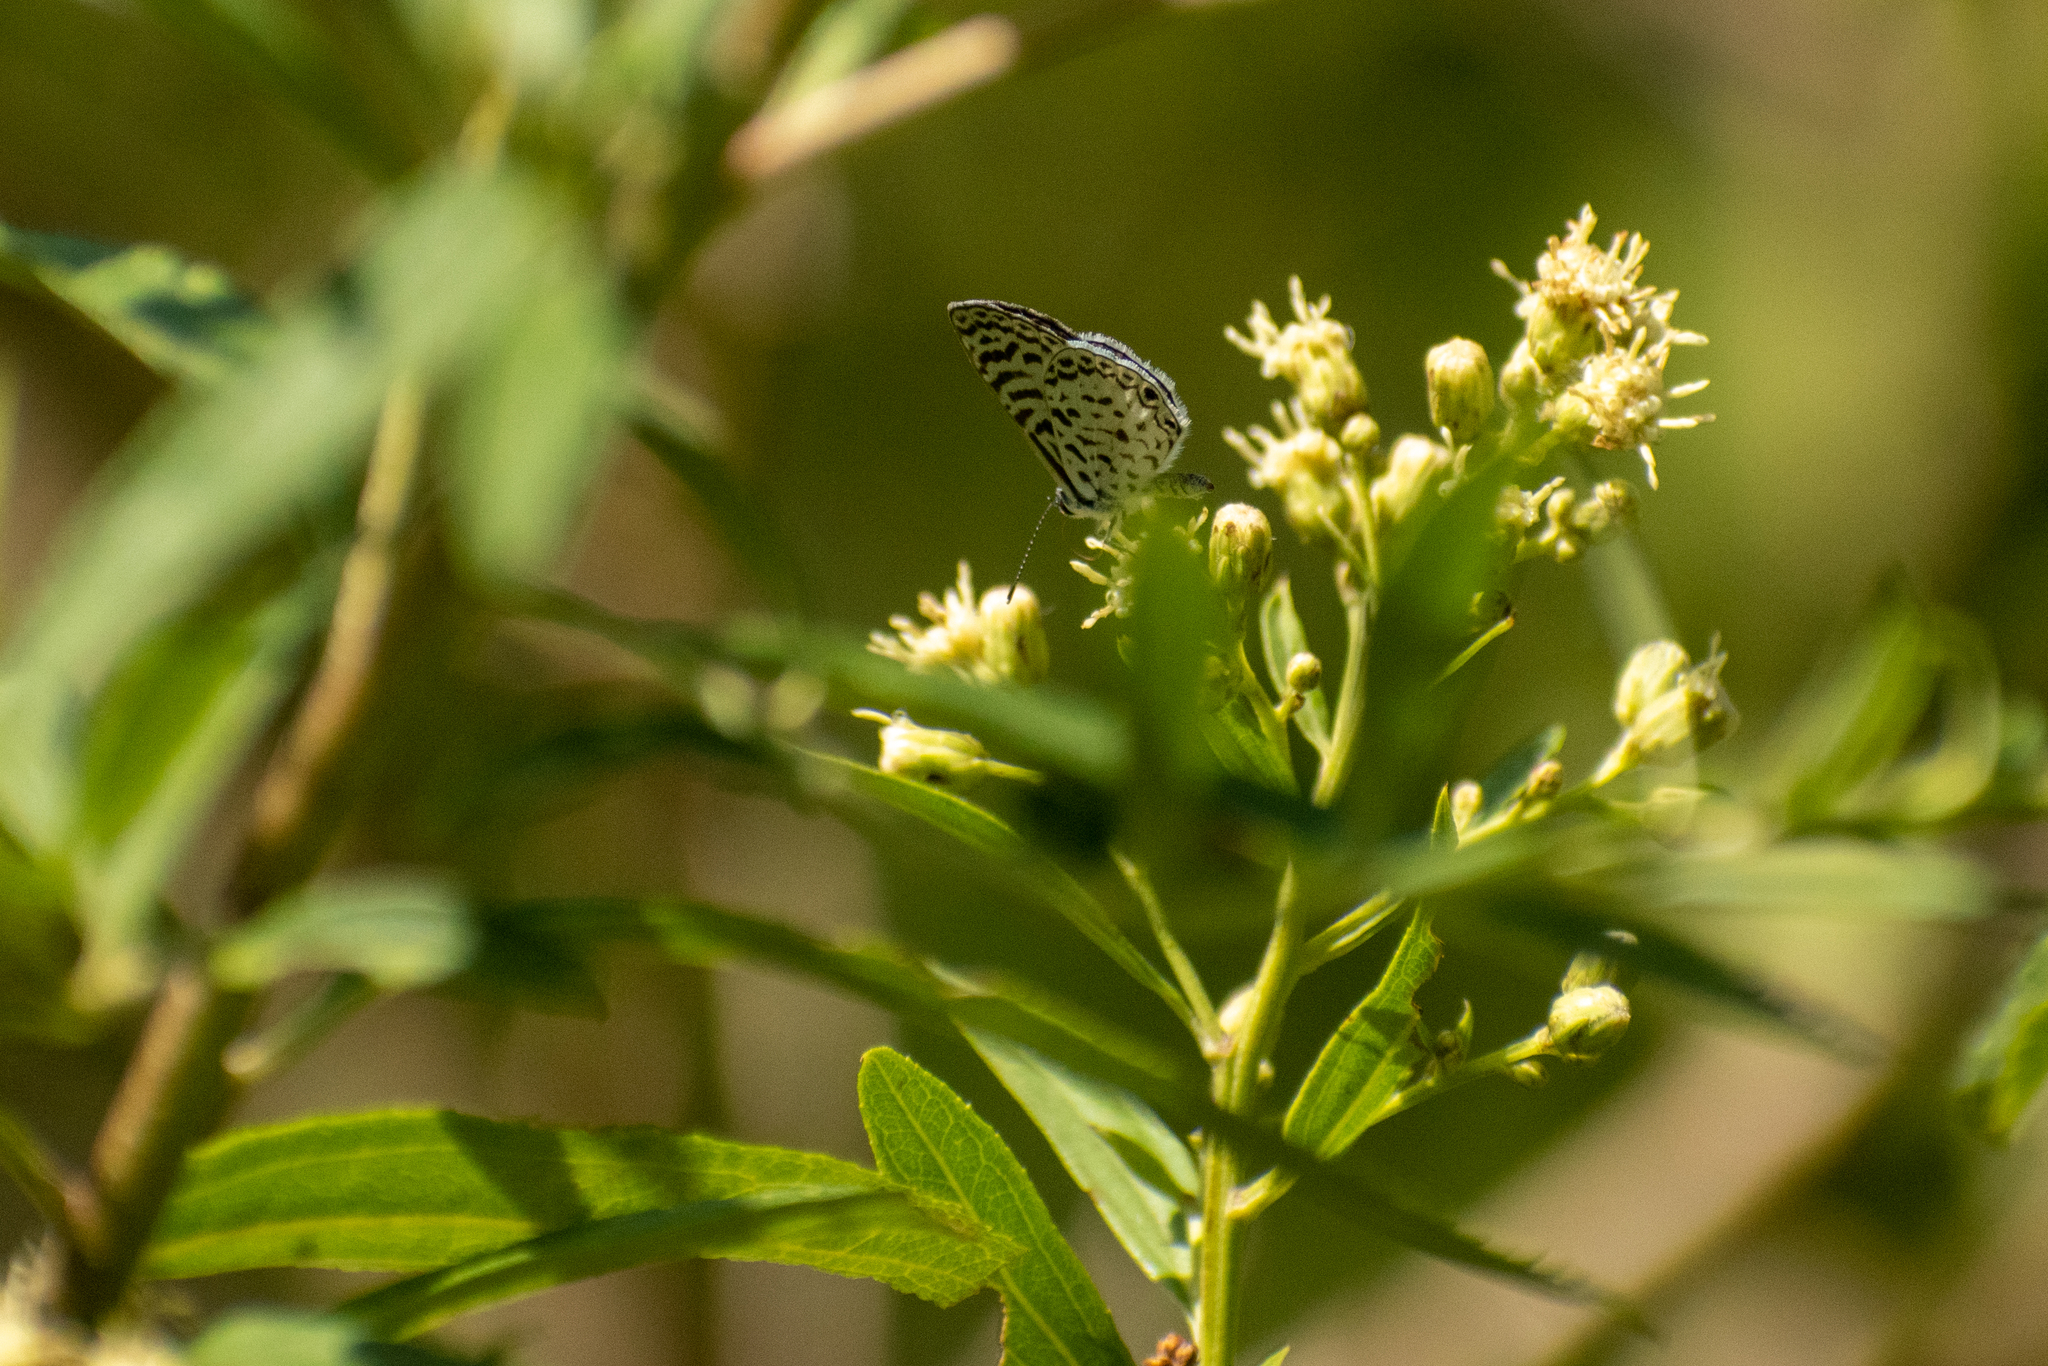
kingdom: Animalia
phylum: Arthropoda
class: Insecta
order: Lepidoptera
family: Lycaenidae
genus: Leptotes
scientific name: Leptotes cassius
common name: Cassius blue
